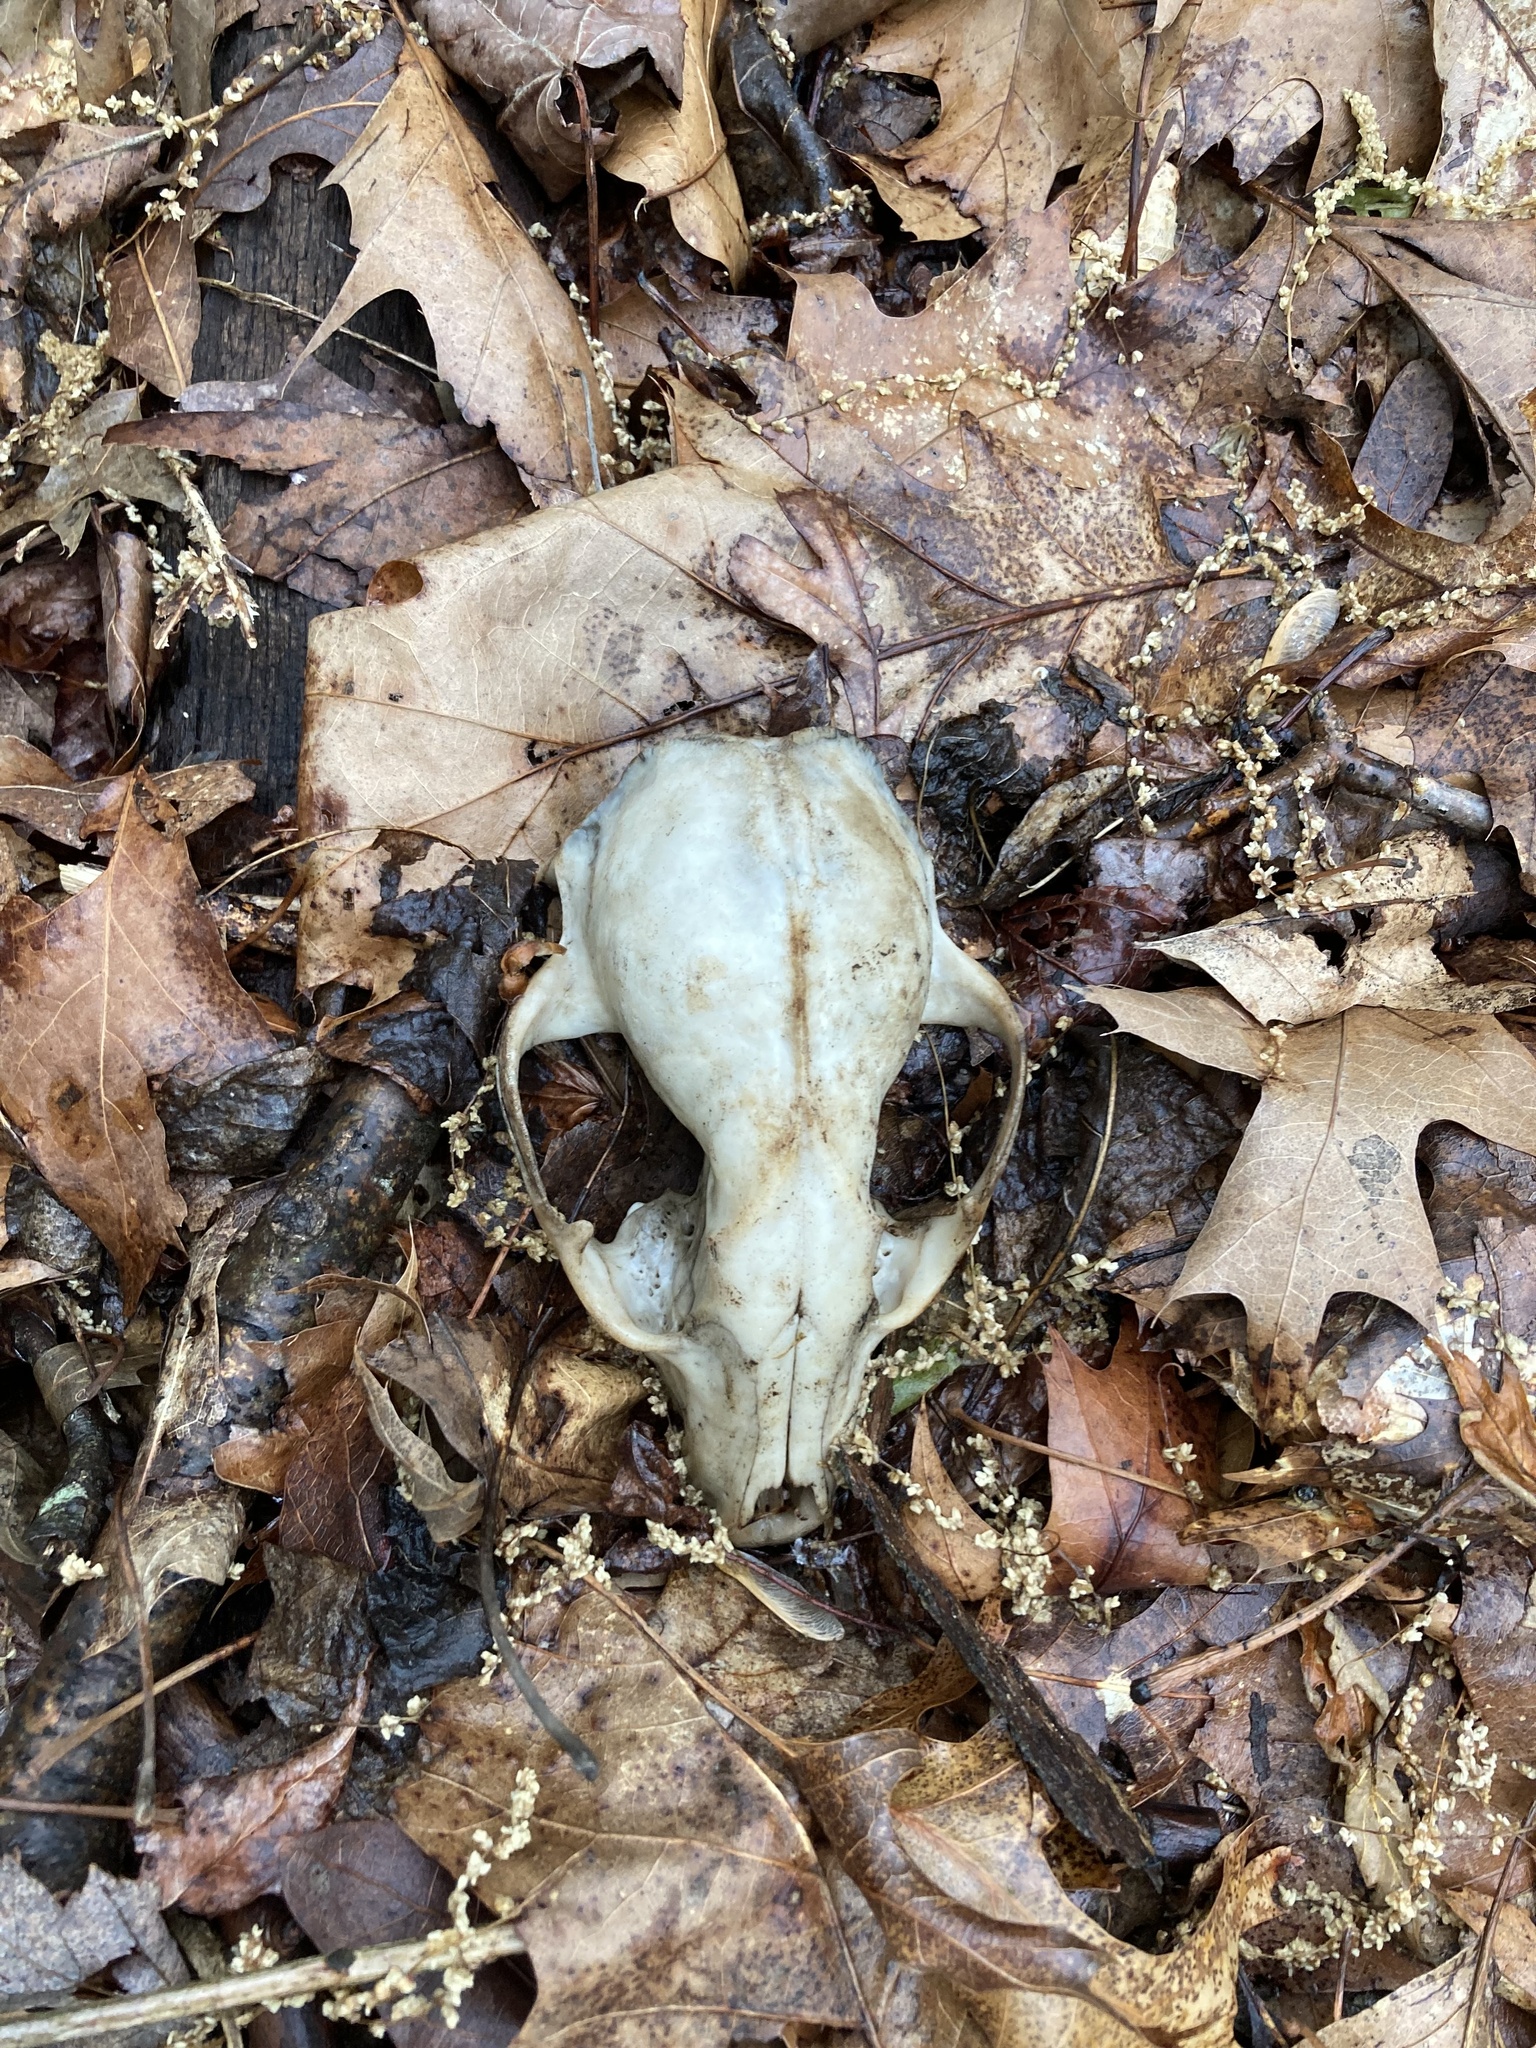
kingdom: Animalia
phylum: Chordata
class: Mammalia
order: Carnivora
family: Procyonidae
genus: Procyon
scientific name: Procyon lotor
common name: Raccoon
